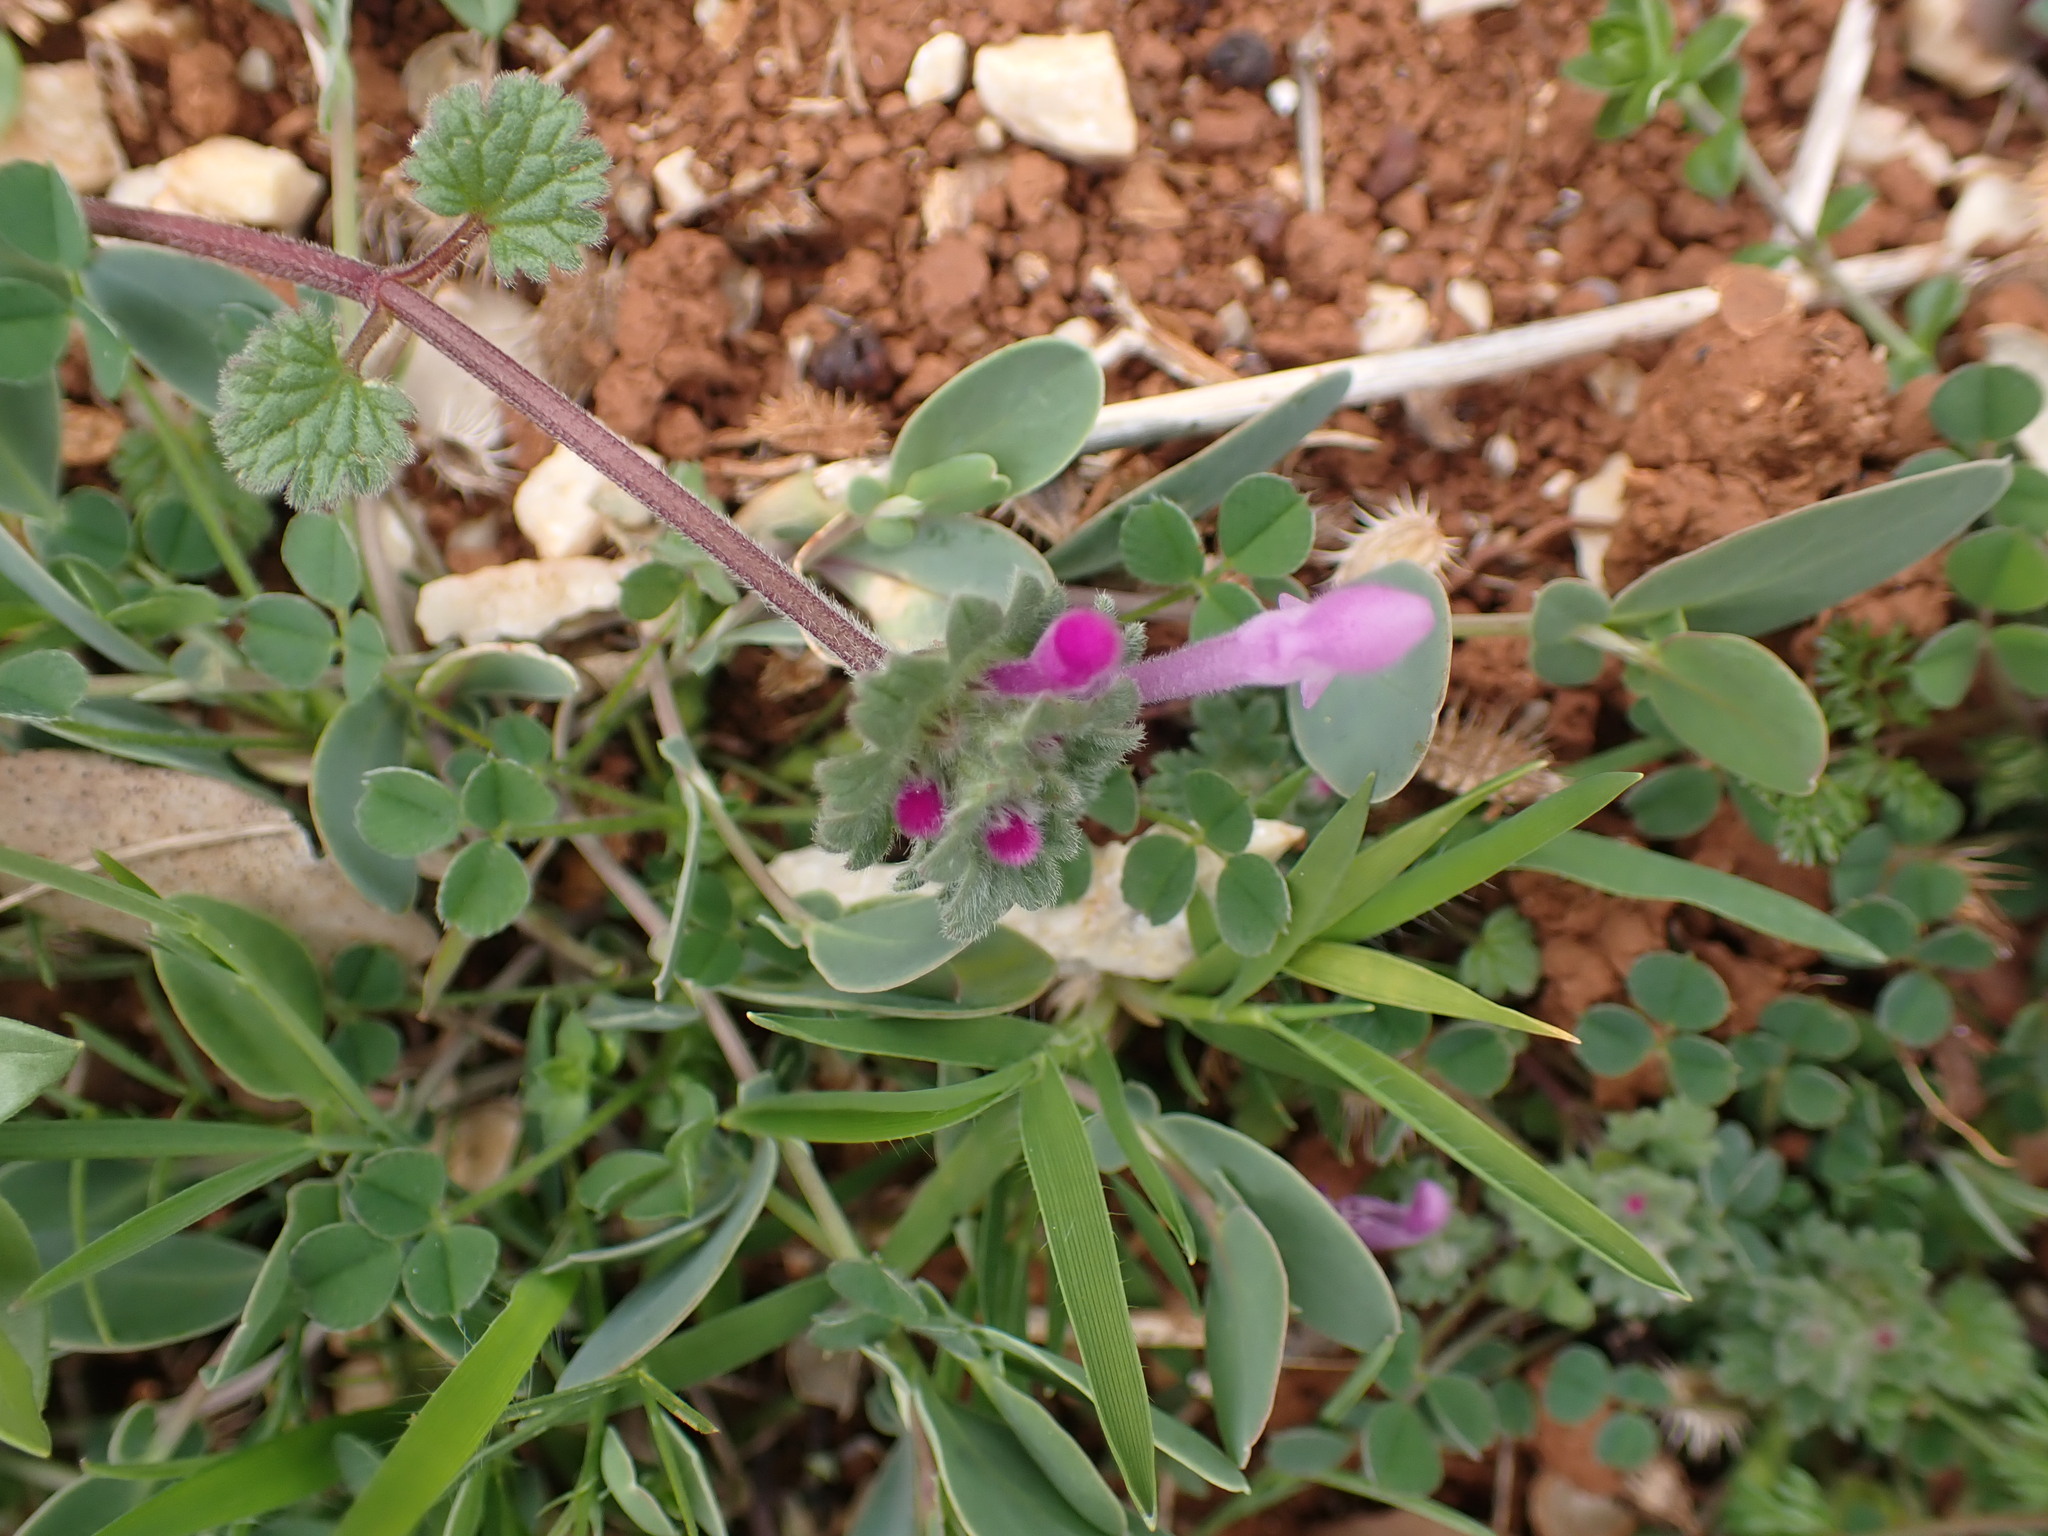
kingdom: Plantae
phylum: Tracheophyta
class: Magnoliopsida
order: Lamiales
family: Lamiaceae
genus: Lamium
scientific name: Lamium amplexicaule
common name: Henbit dead-nettle
